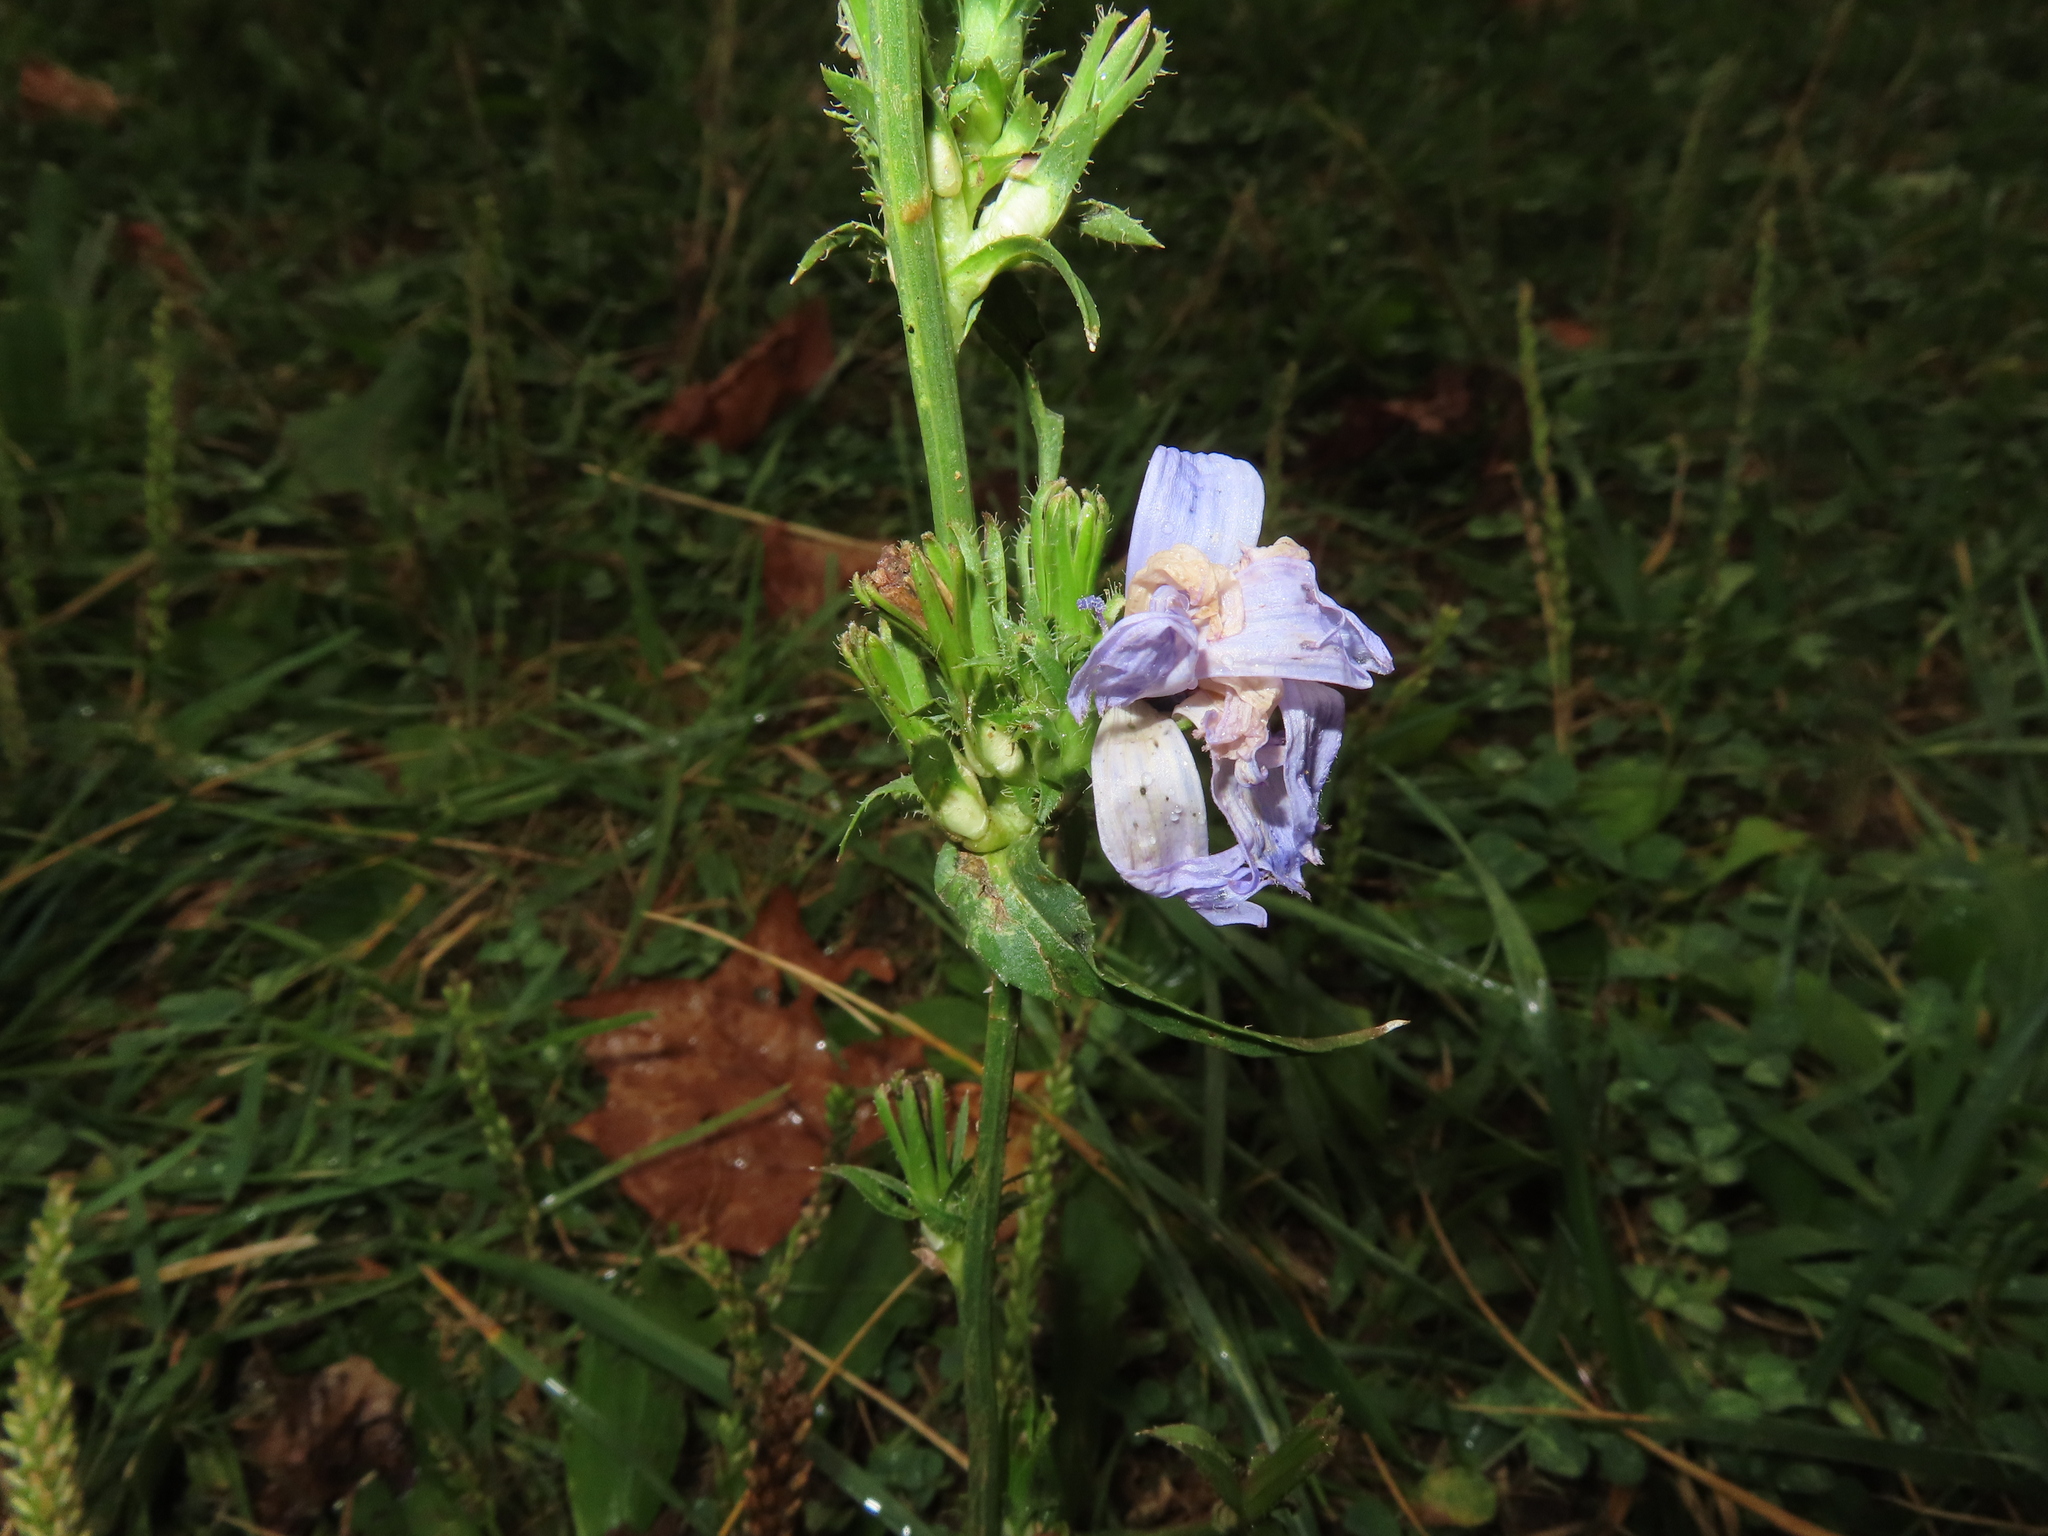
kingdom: Plantae
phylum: Tracheophyta
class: Magnoliopsida
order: Asterales
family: Asteraceae
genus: Cichorium
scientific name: Cichorium intybus
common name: Chicory
